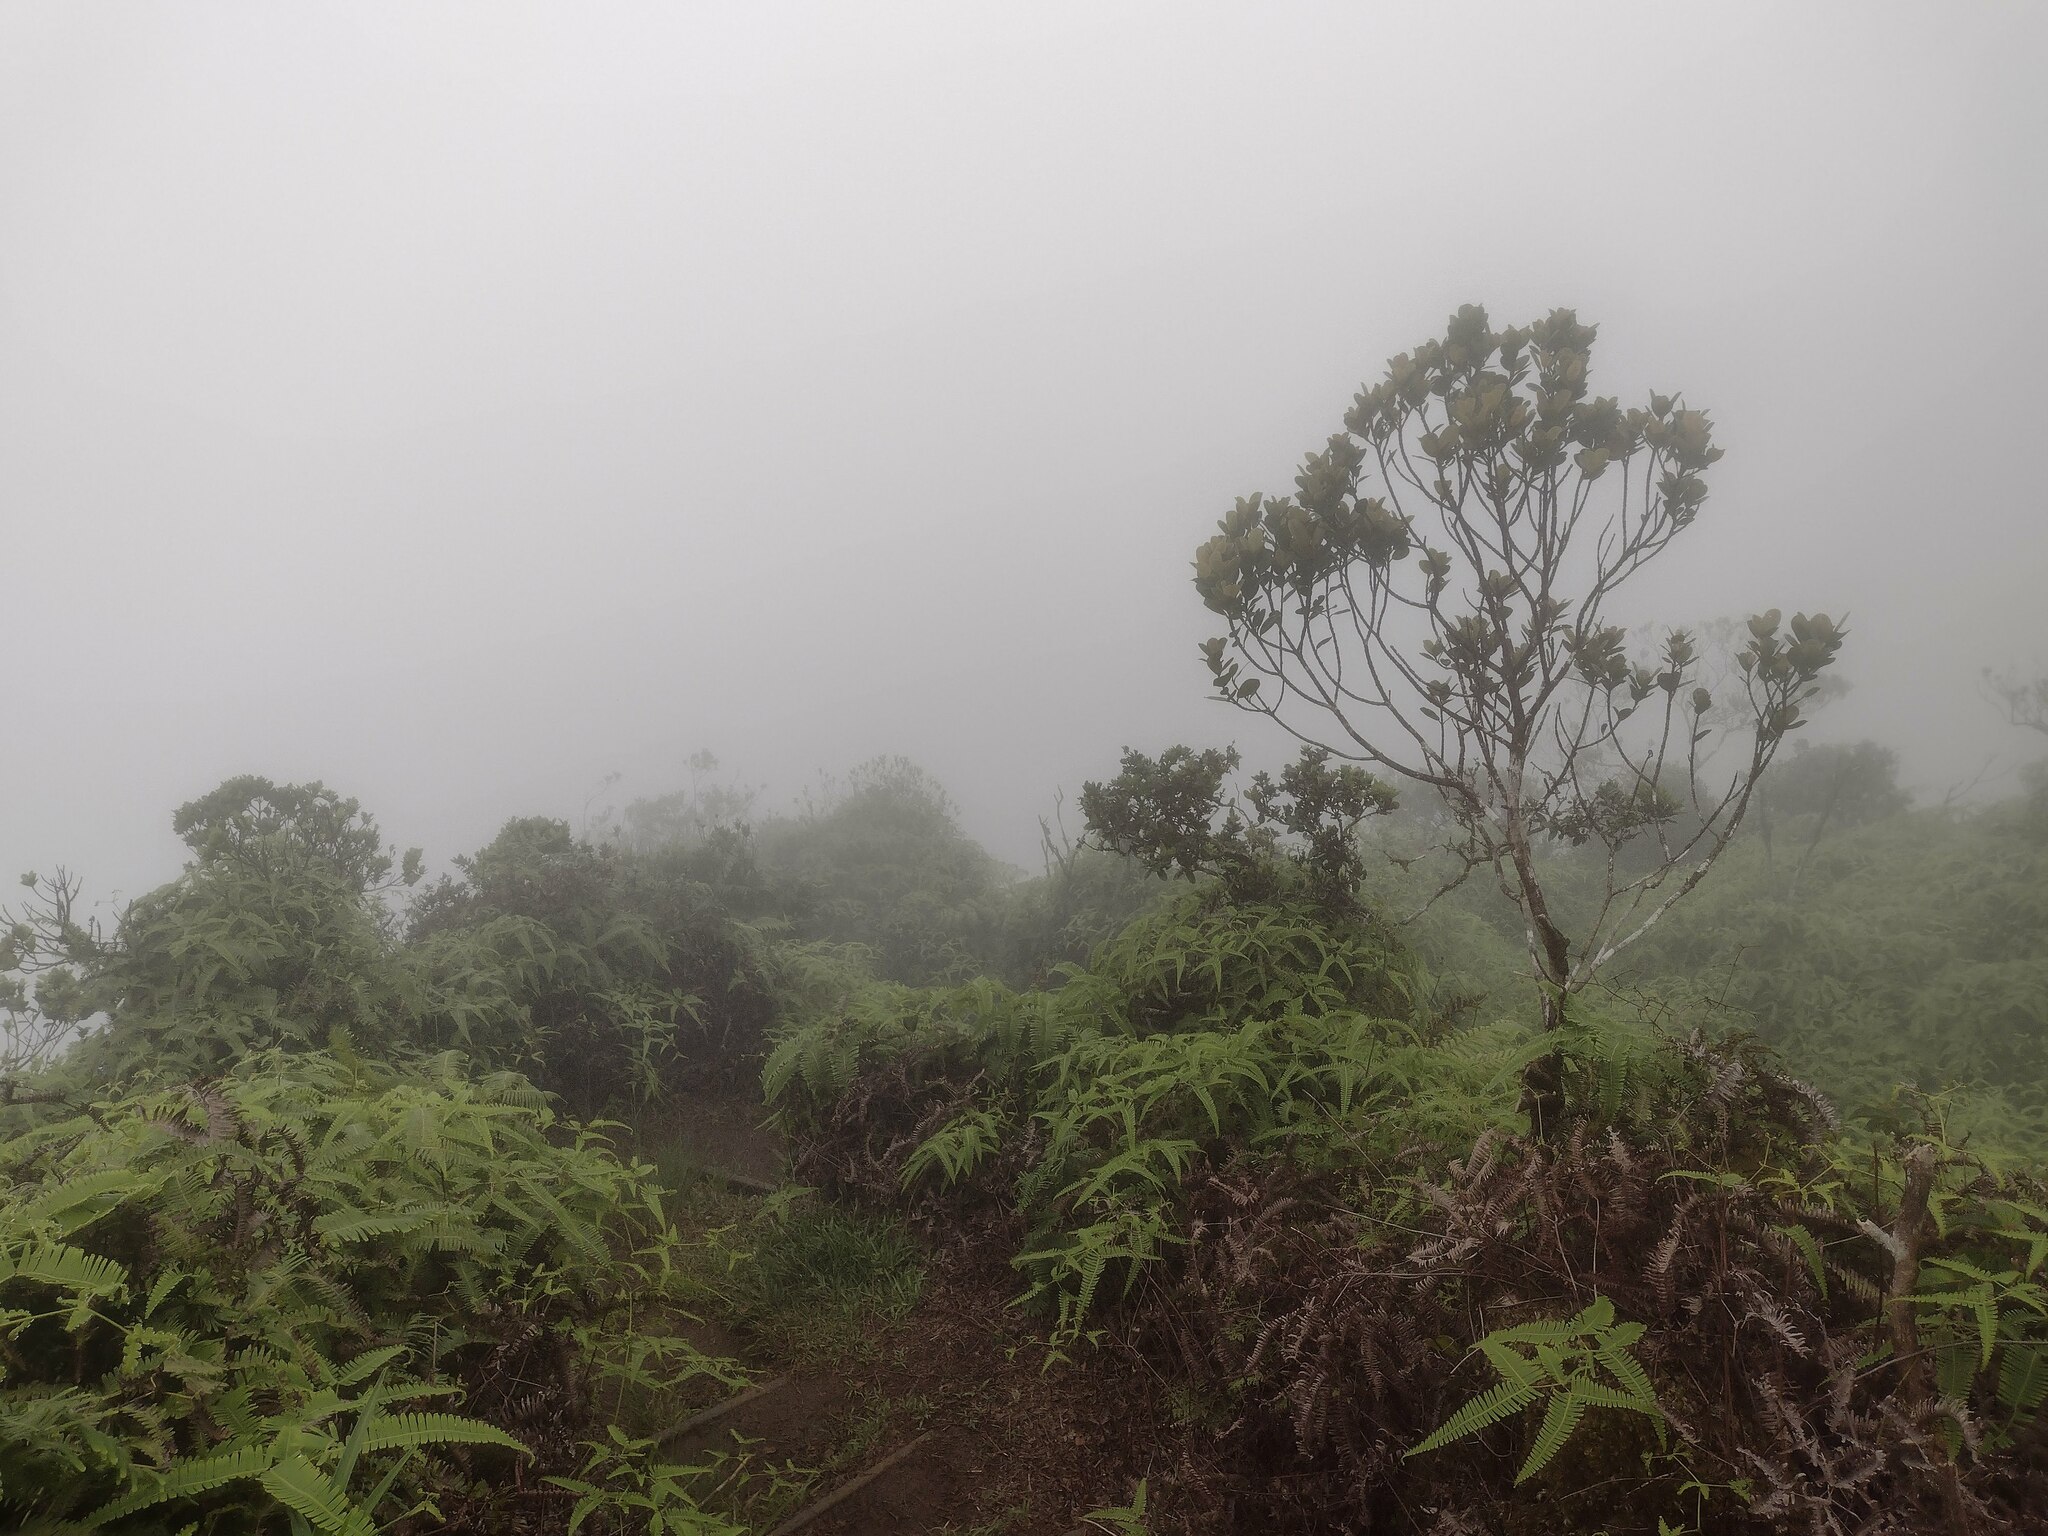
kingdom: Plantae
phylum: Tracheophyta
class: Polypodiopsida
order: Gleicheniales
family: Gleicheniaceae
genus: Dicranopteris
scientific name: Dicranopteris linearis
